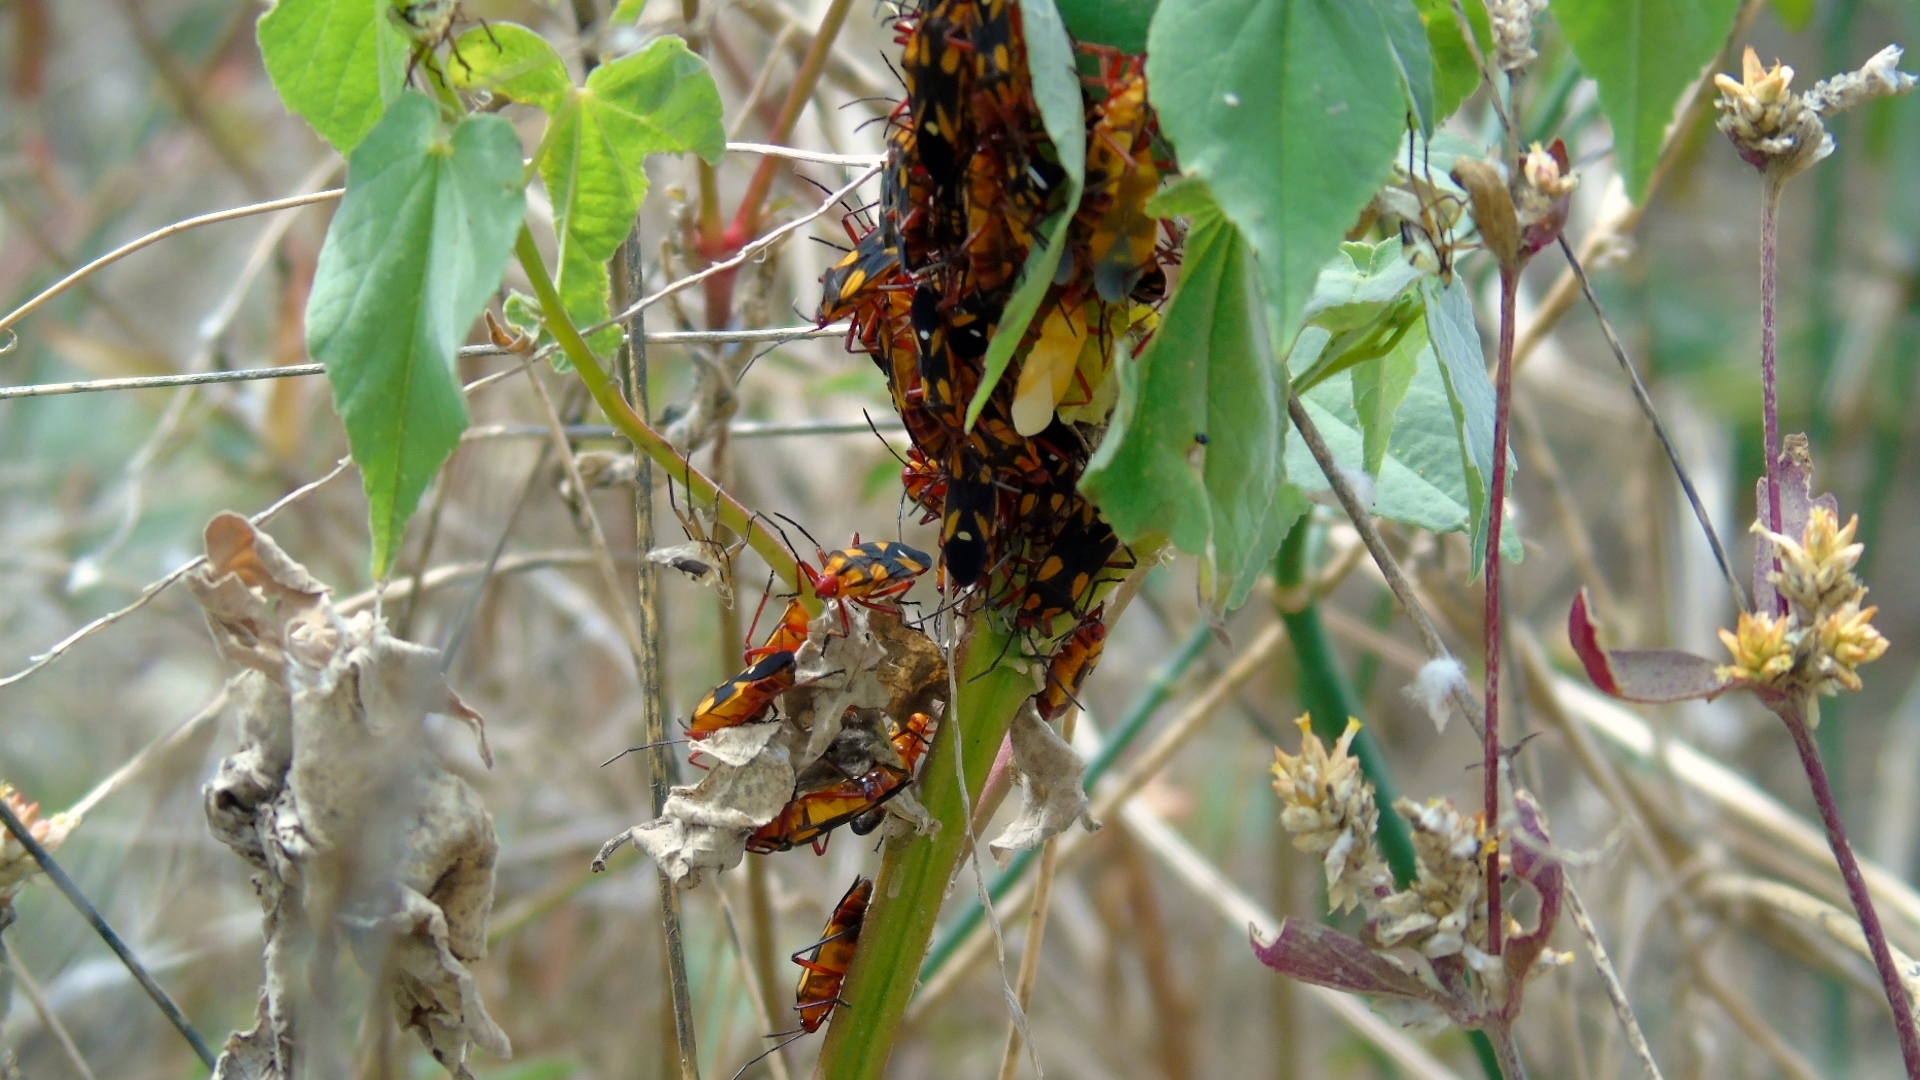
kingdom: Animalia
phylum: Arthropoda
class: Insecta
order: Hemiptera
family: Lygaeidae
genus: Oncopeltus
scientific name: Oncopeltus
